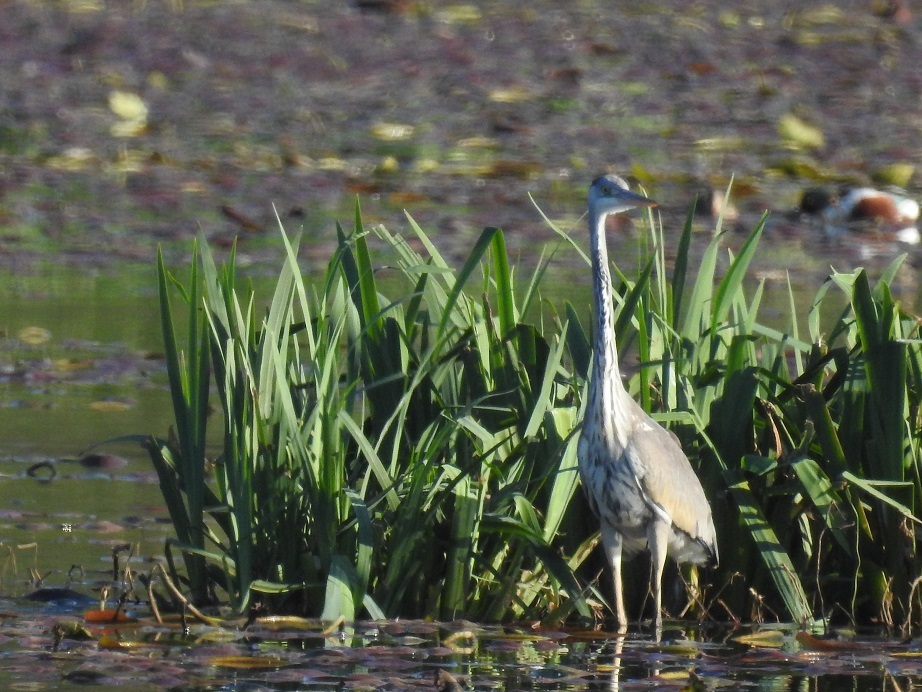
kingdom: Animalia
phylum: Chordata
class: Aves
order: Pelecaniformes
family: Ardeidae
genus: Ardea
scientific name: Ardea cinerea
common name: Grey heron
